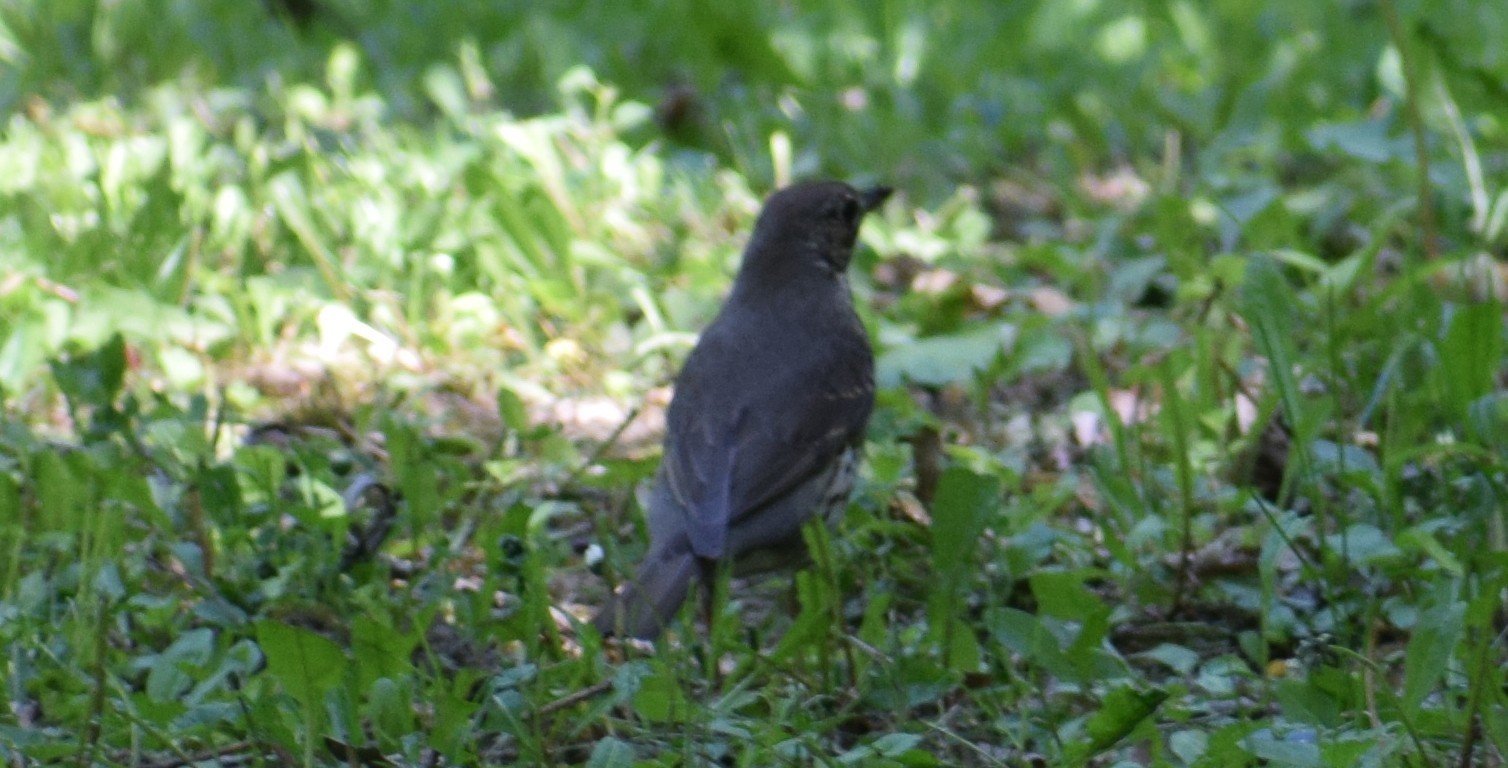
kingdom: Animalia
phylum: Chordata
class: Aves
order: Passeriformes
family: Turdidae
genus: Turdus
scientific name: Turdus philomelos
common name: Song thrush
